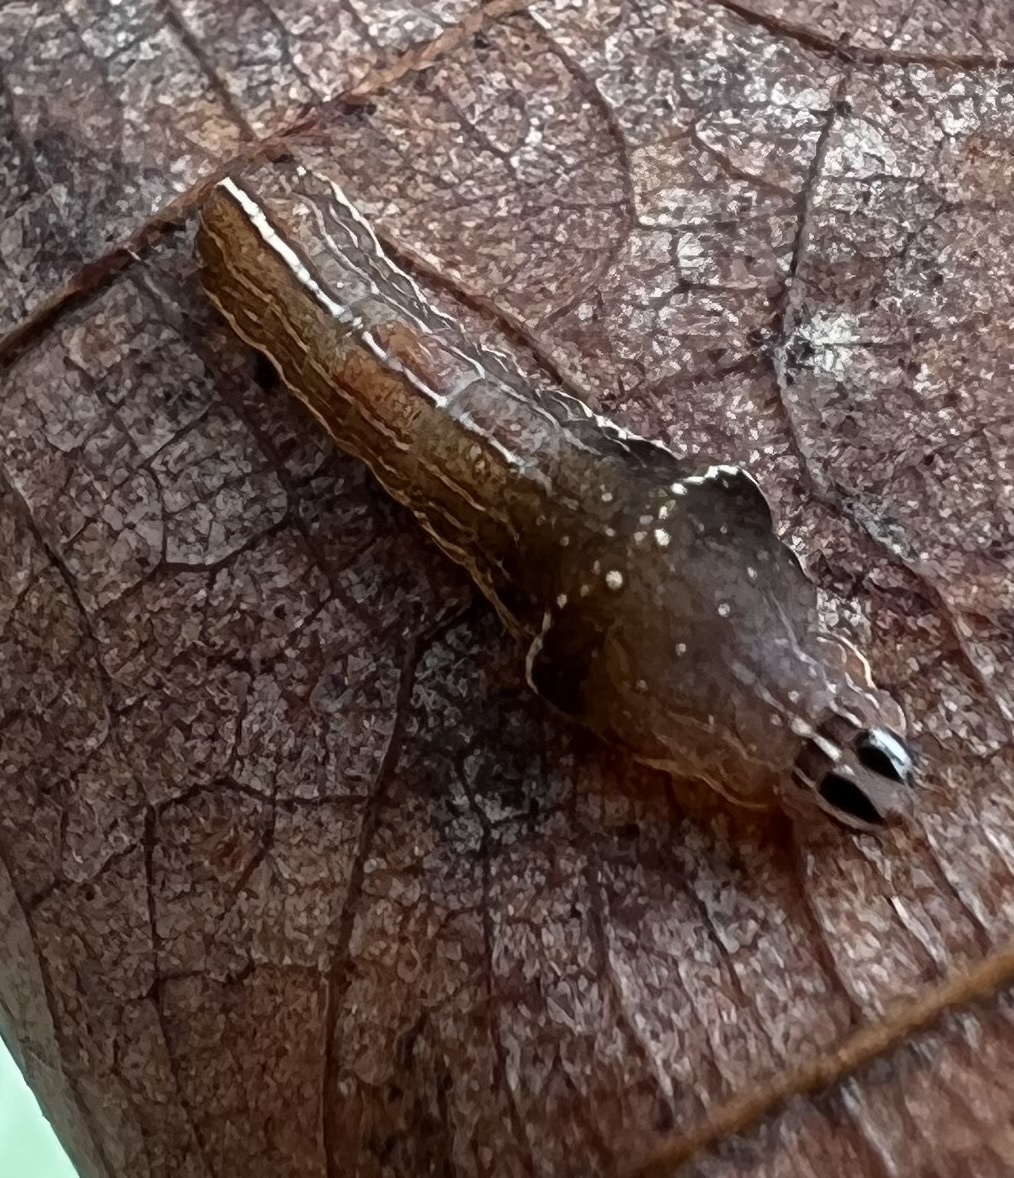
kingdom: Animalia
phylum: Arthropoda
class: Insecta
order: Lepidoptera
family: Noctuidae
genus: Galgula
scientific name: Galgula partita
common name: Wedgeling
